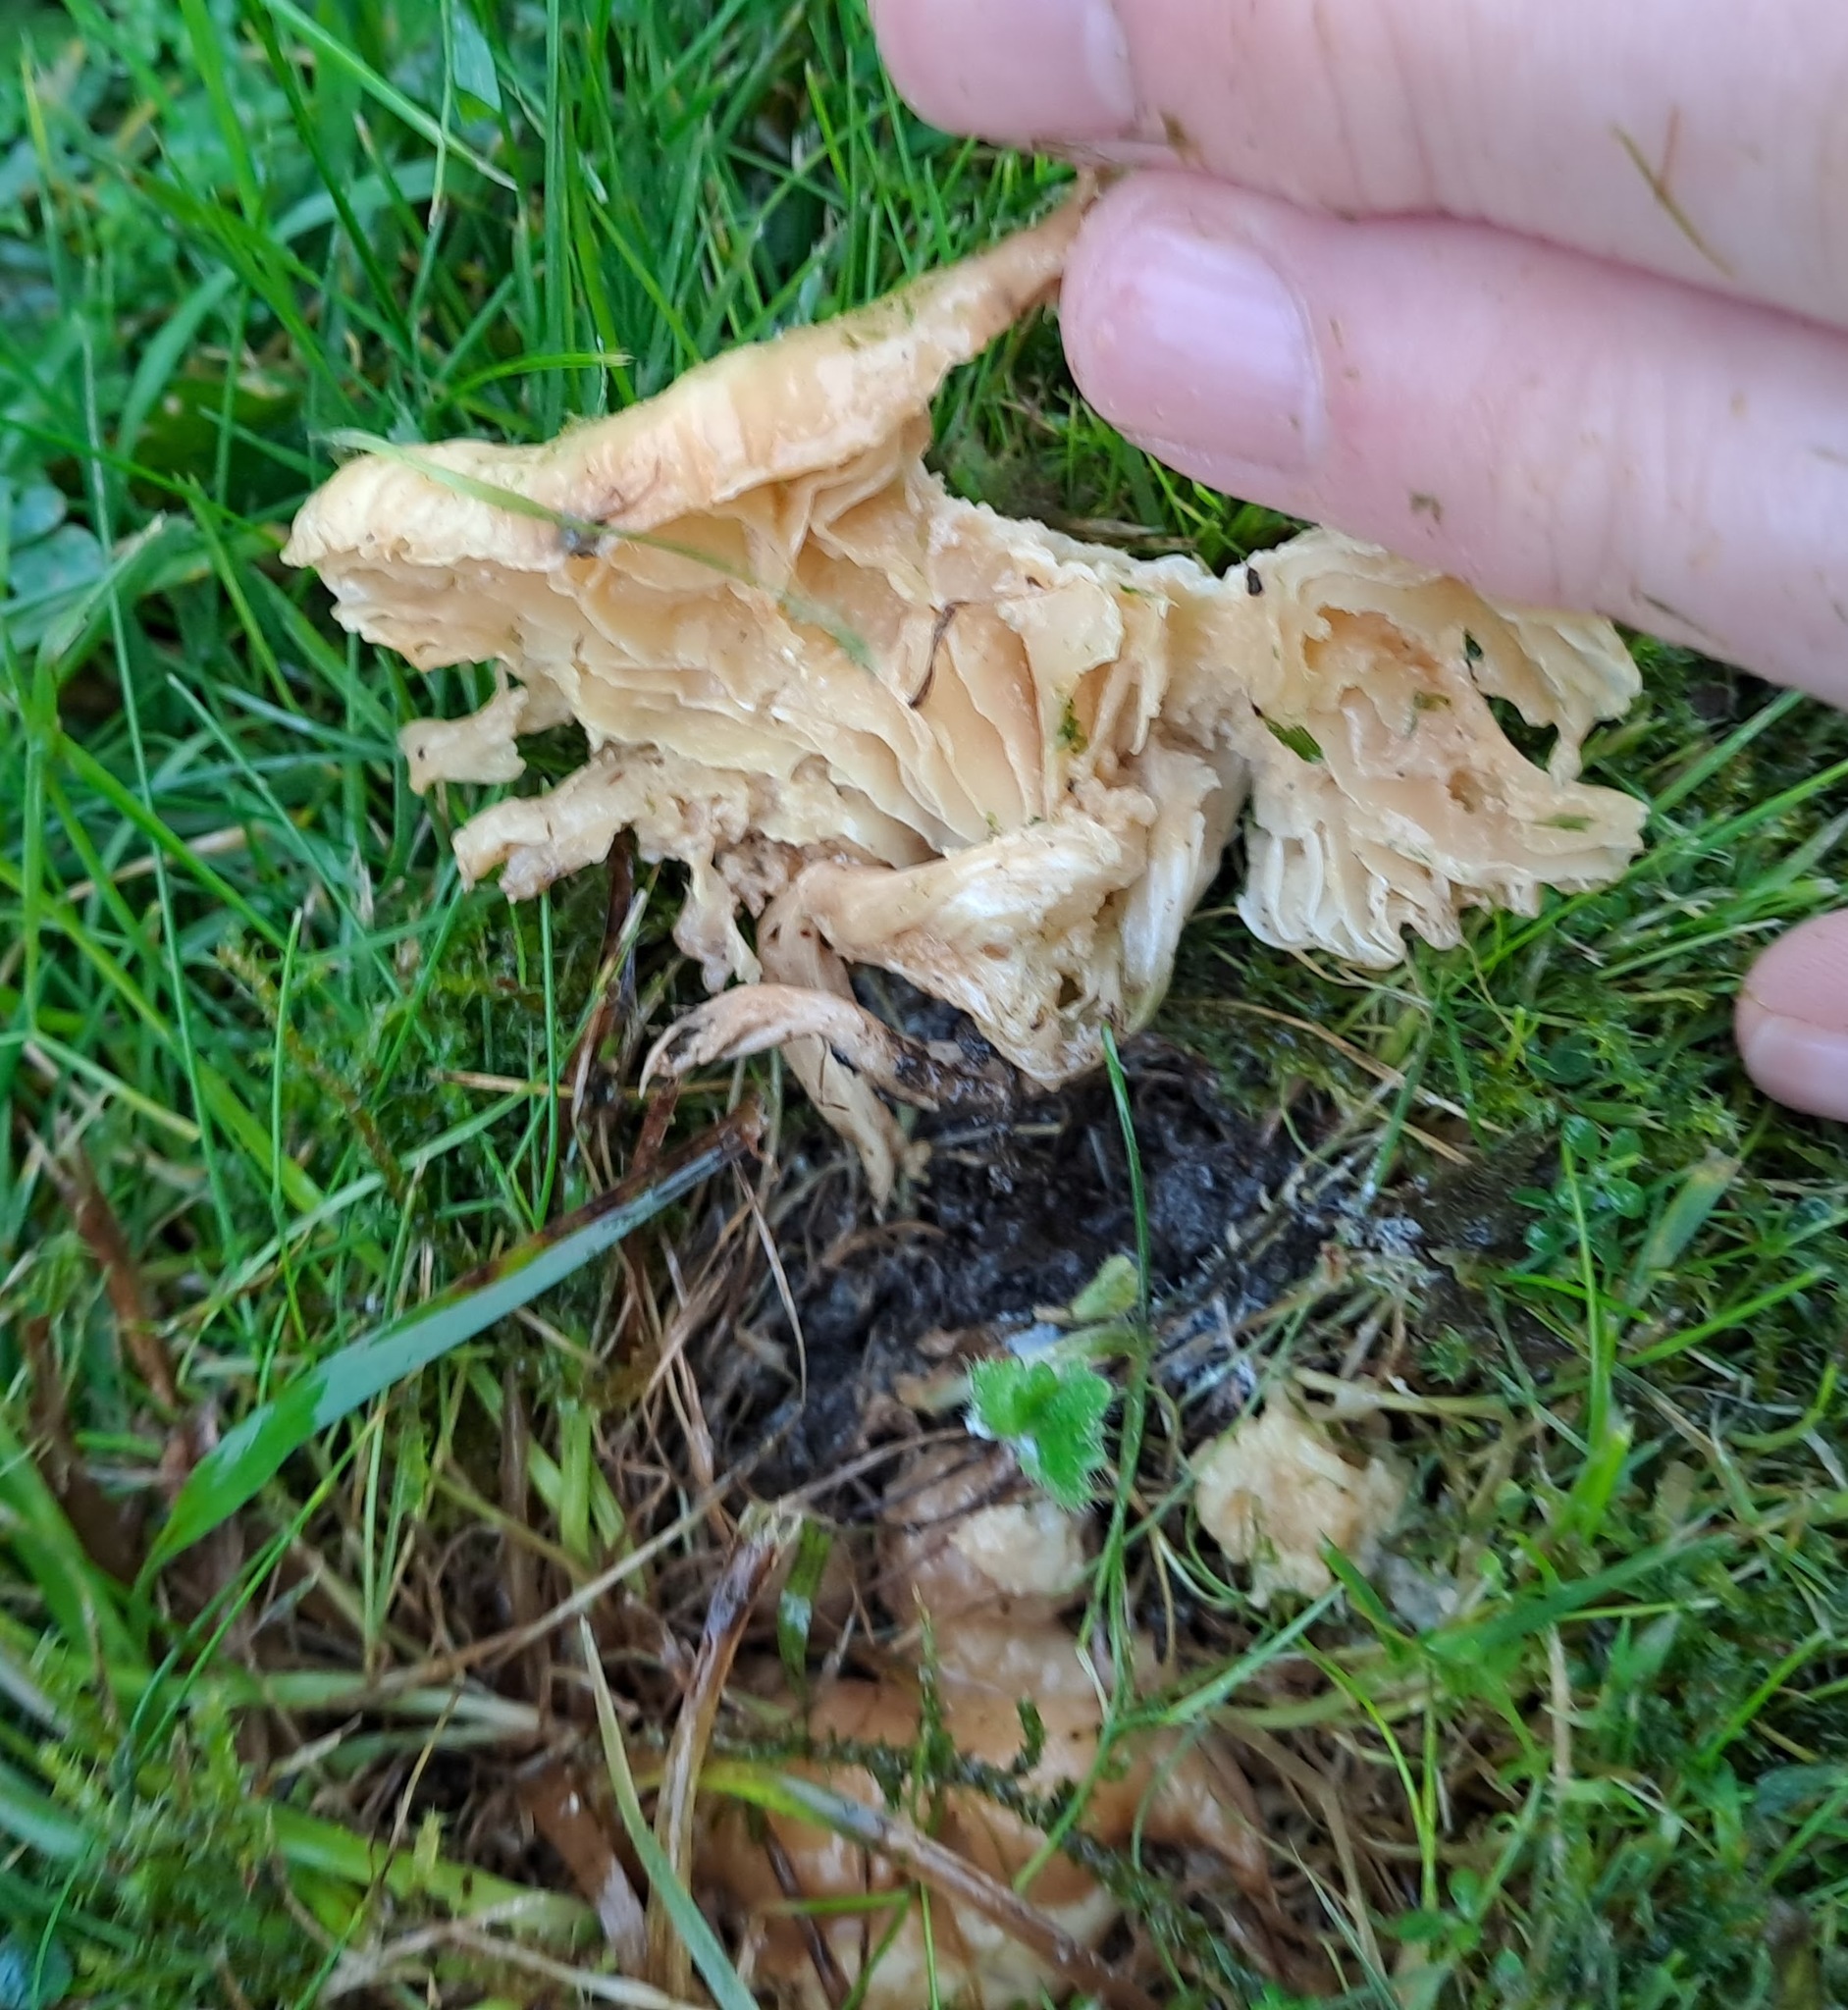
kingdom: Fungi
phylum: Basidiomycota
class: Agaricomycetes
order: Agaricales
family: Hygrophoraceae
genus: Cuphophyllus
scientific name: Cuphophyllus pratensis
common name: Meadow waxcap
